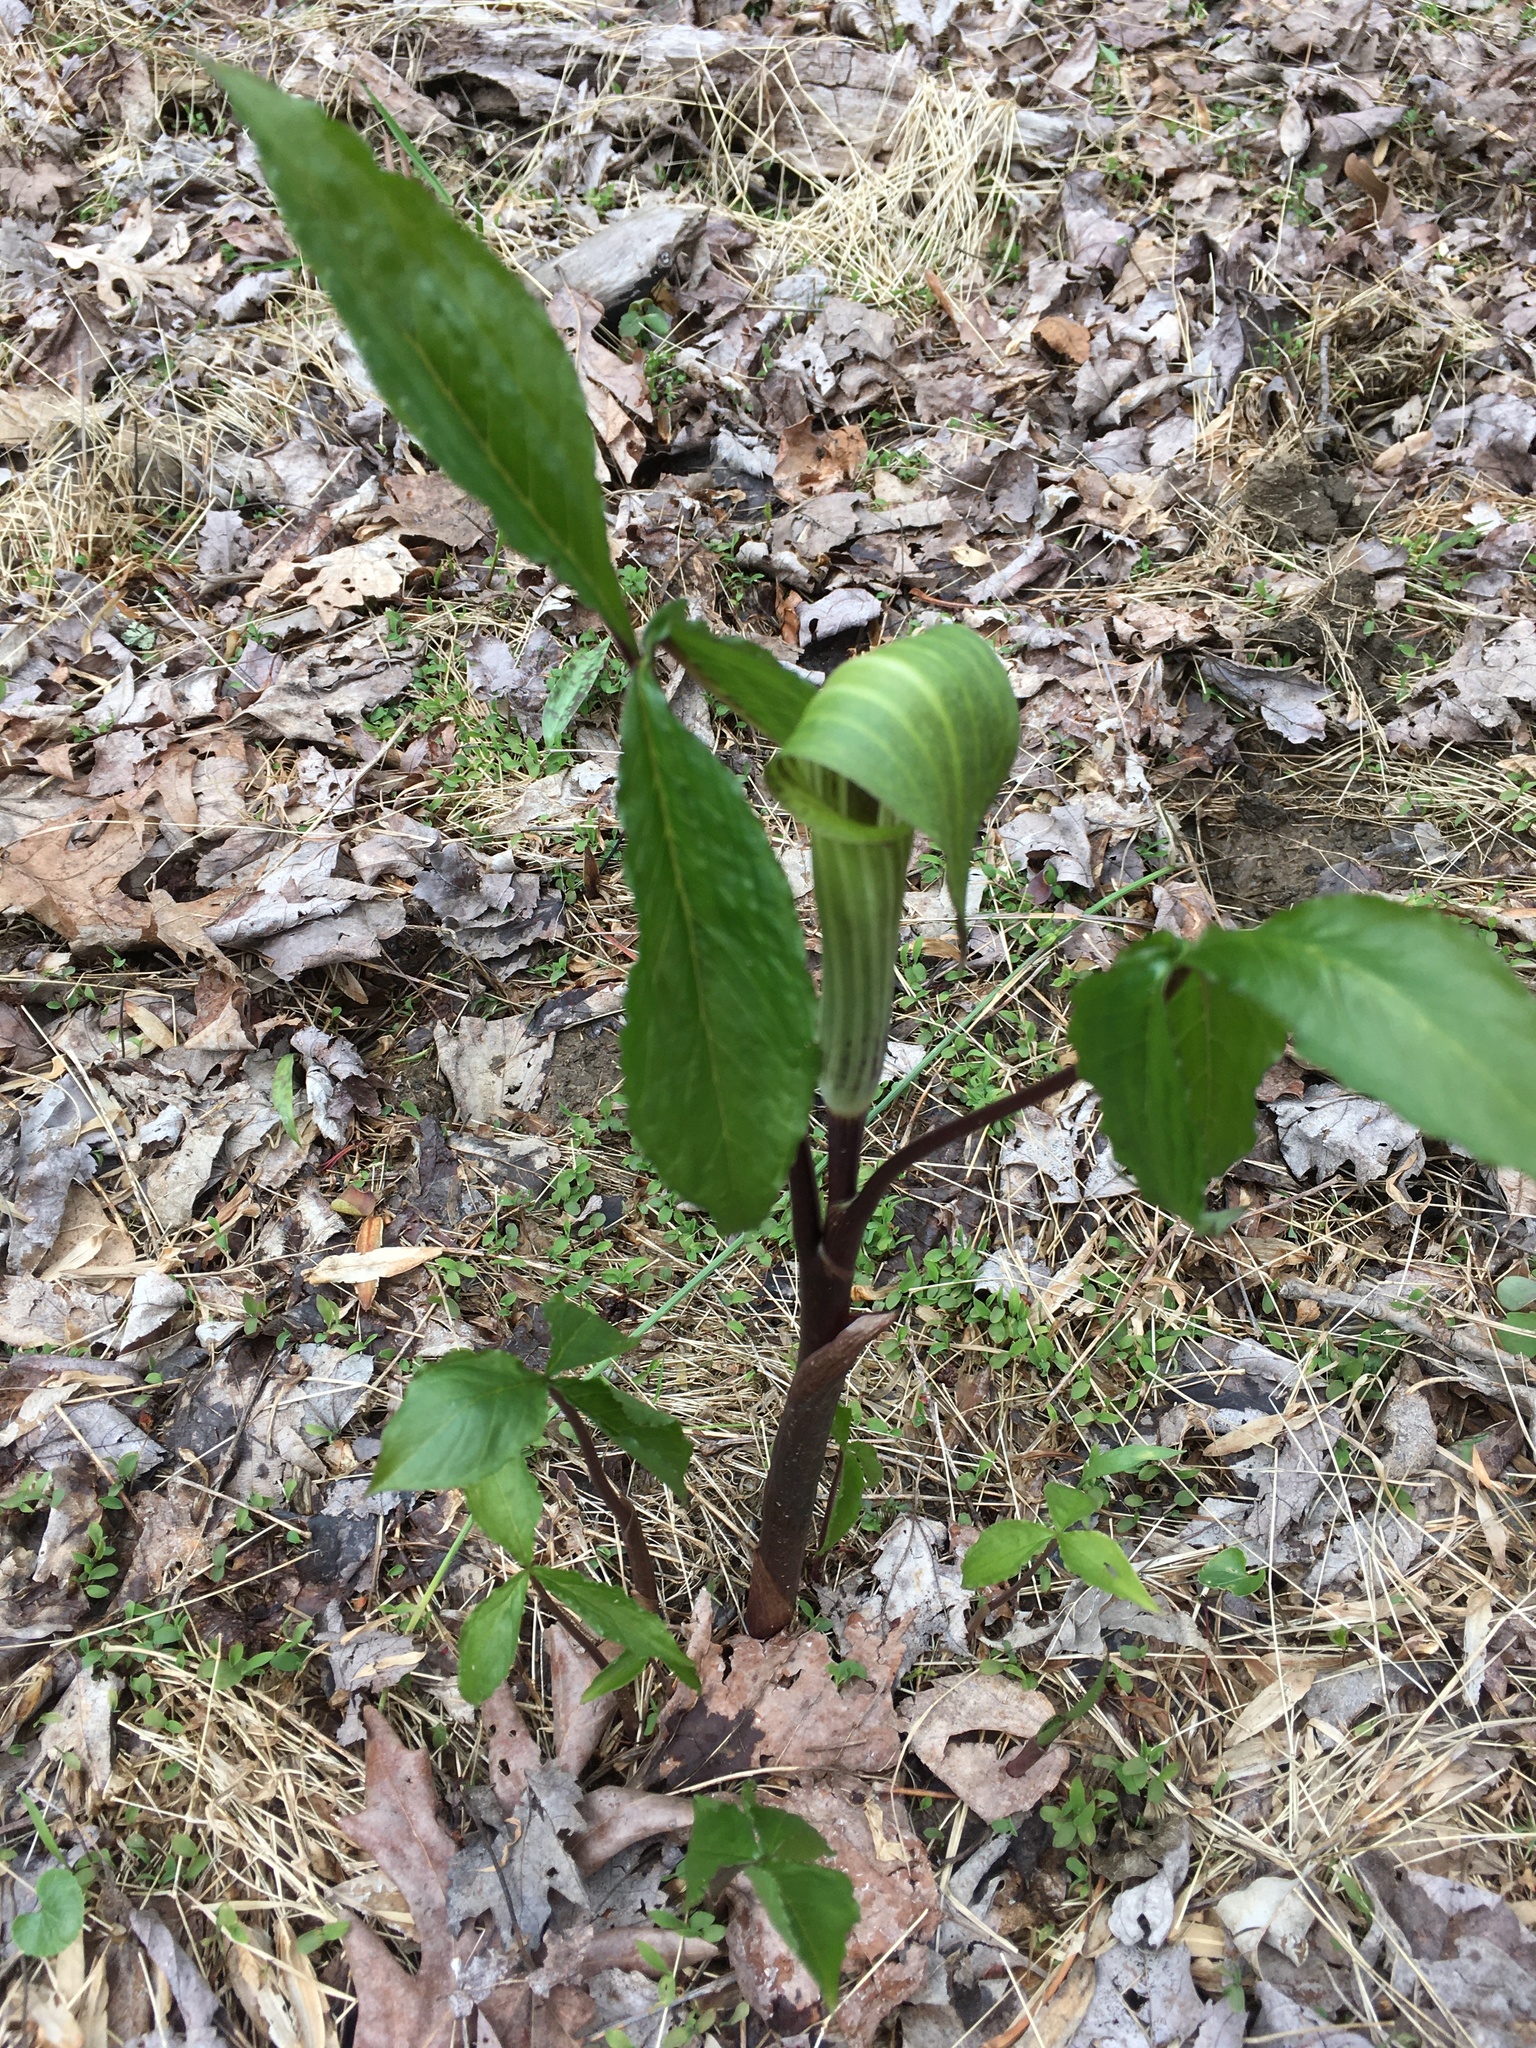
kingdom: Plantae
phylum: Tracheophyta
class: Liliopsida
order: Alismatales
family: Araceae
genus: Arisaema
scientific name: Arisaema triphyllum
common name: Jack-in-the-pulpit
